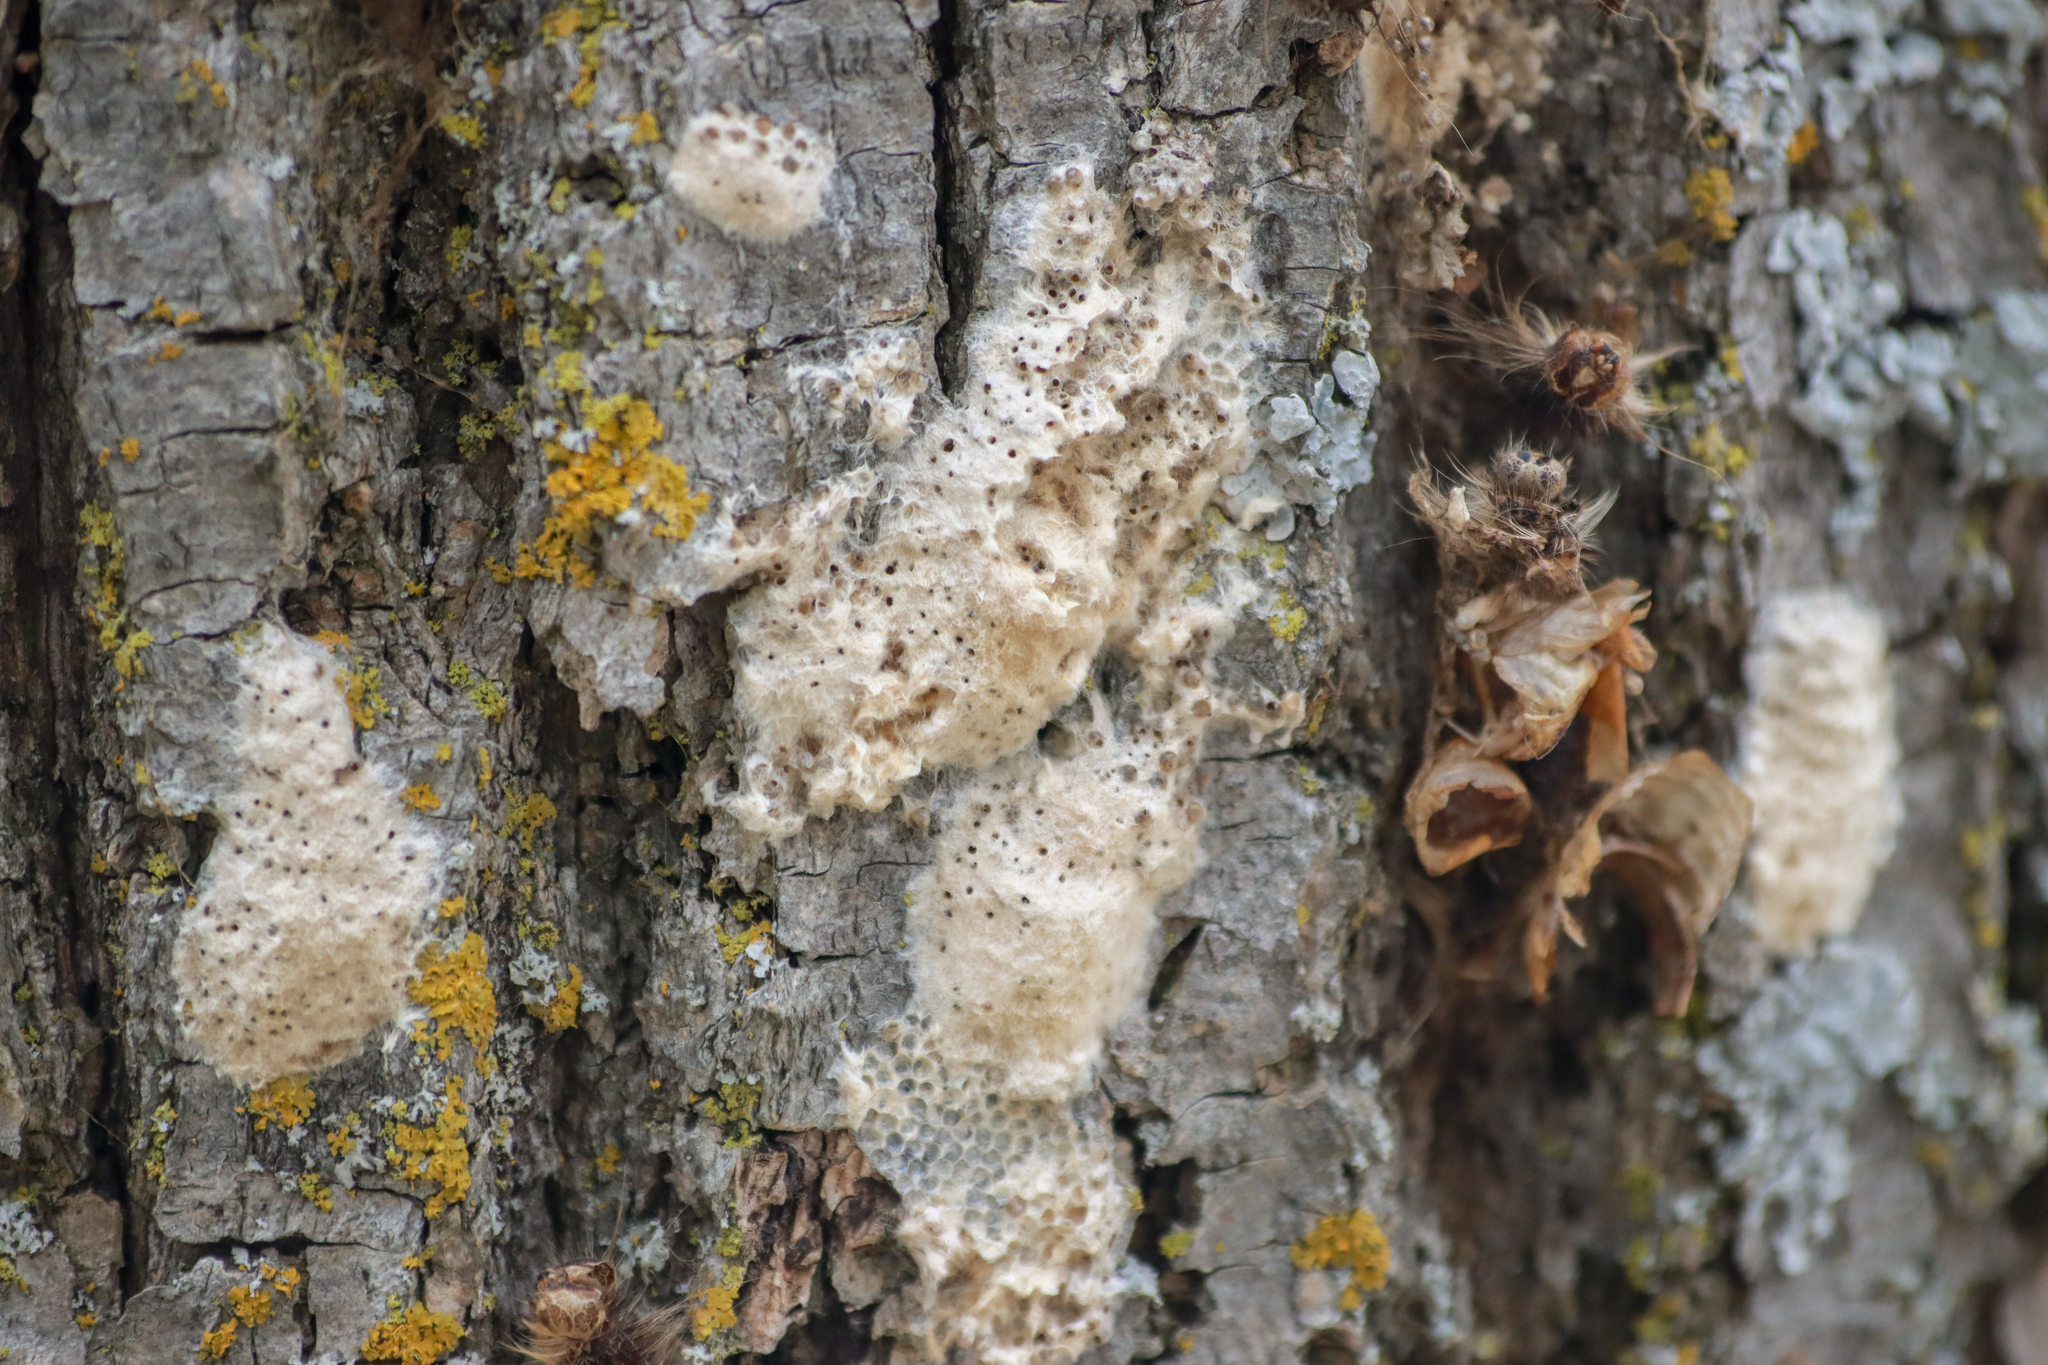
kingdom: Animalia
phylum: Arthropoda
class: Insecta
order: Lepidoptera
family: Erebidae
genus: Lymantria
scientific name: Lymantria dispar
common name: Gypsy moth
